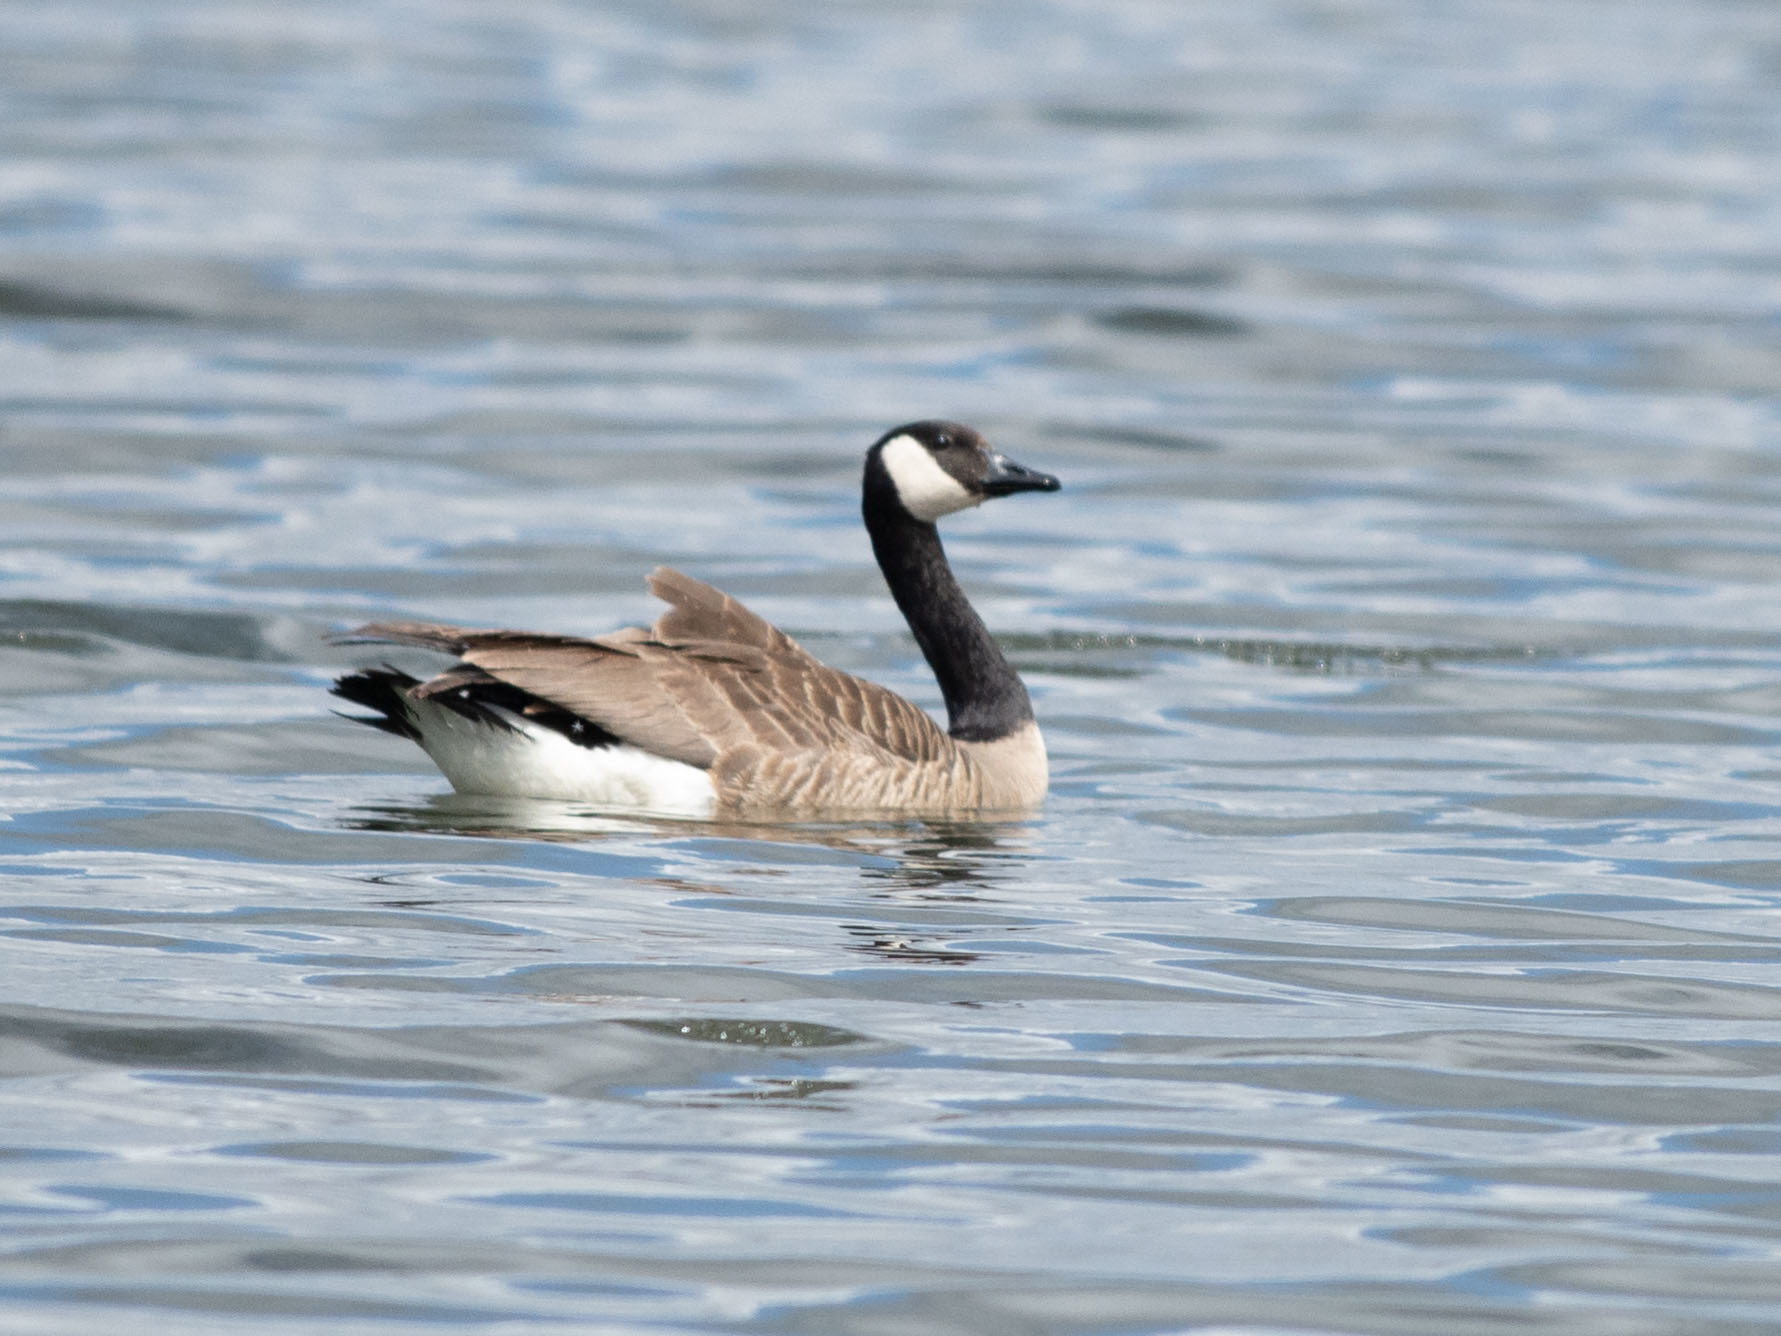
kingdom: Animalia
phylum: Chordata
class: Aves
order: Anseriformes
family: Anatidae
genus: Branta
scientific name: Branta canadensis
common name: Canada goose
